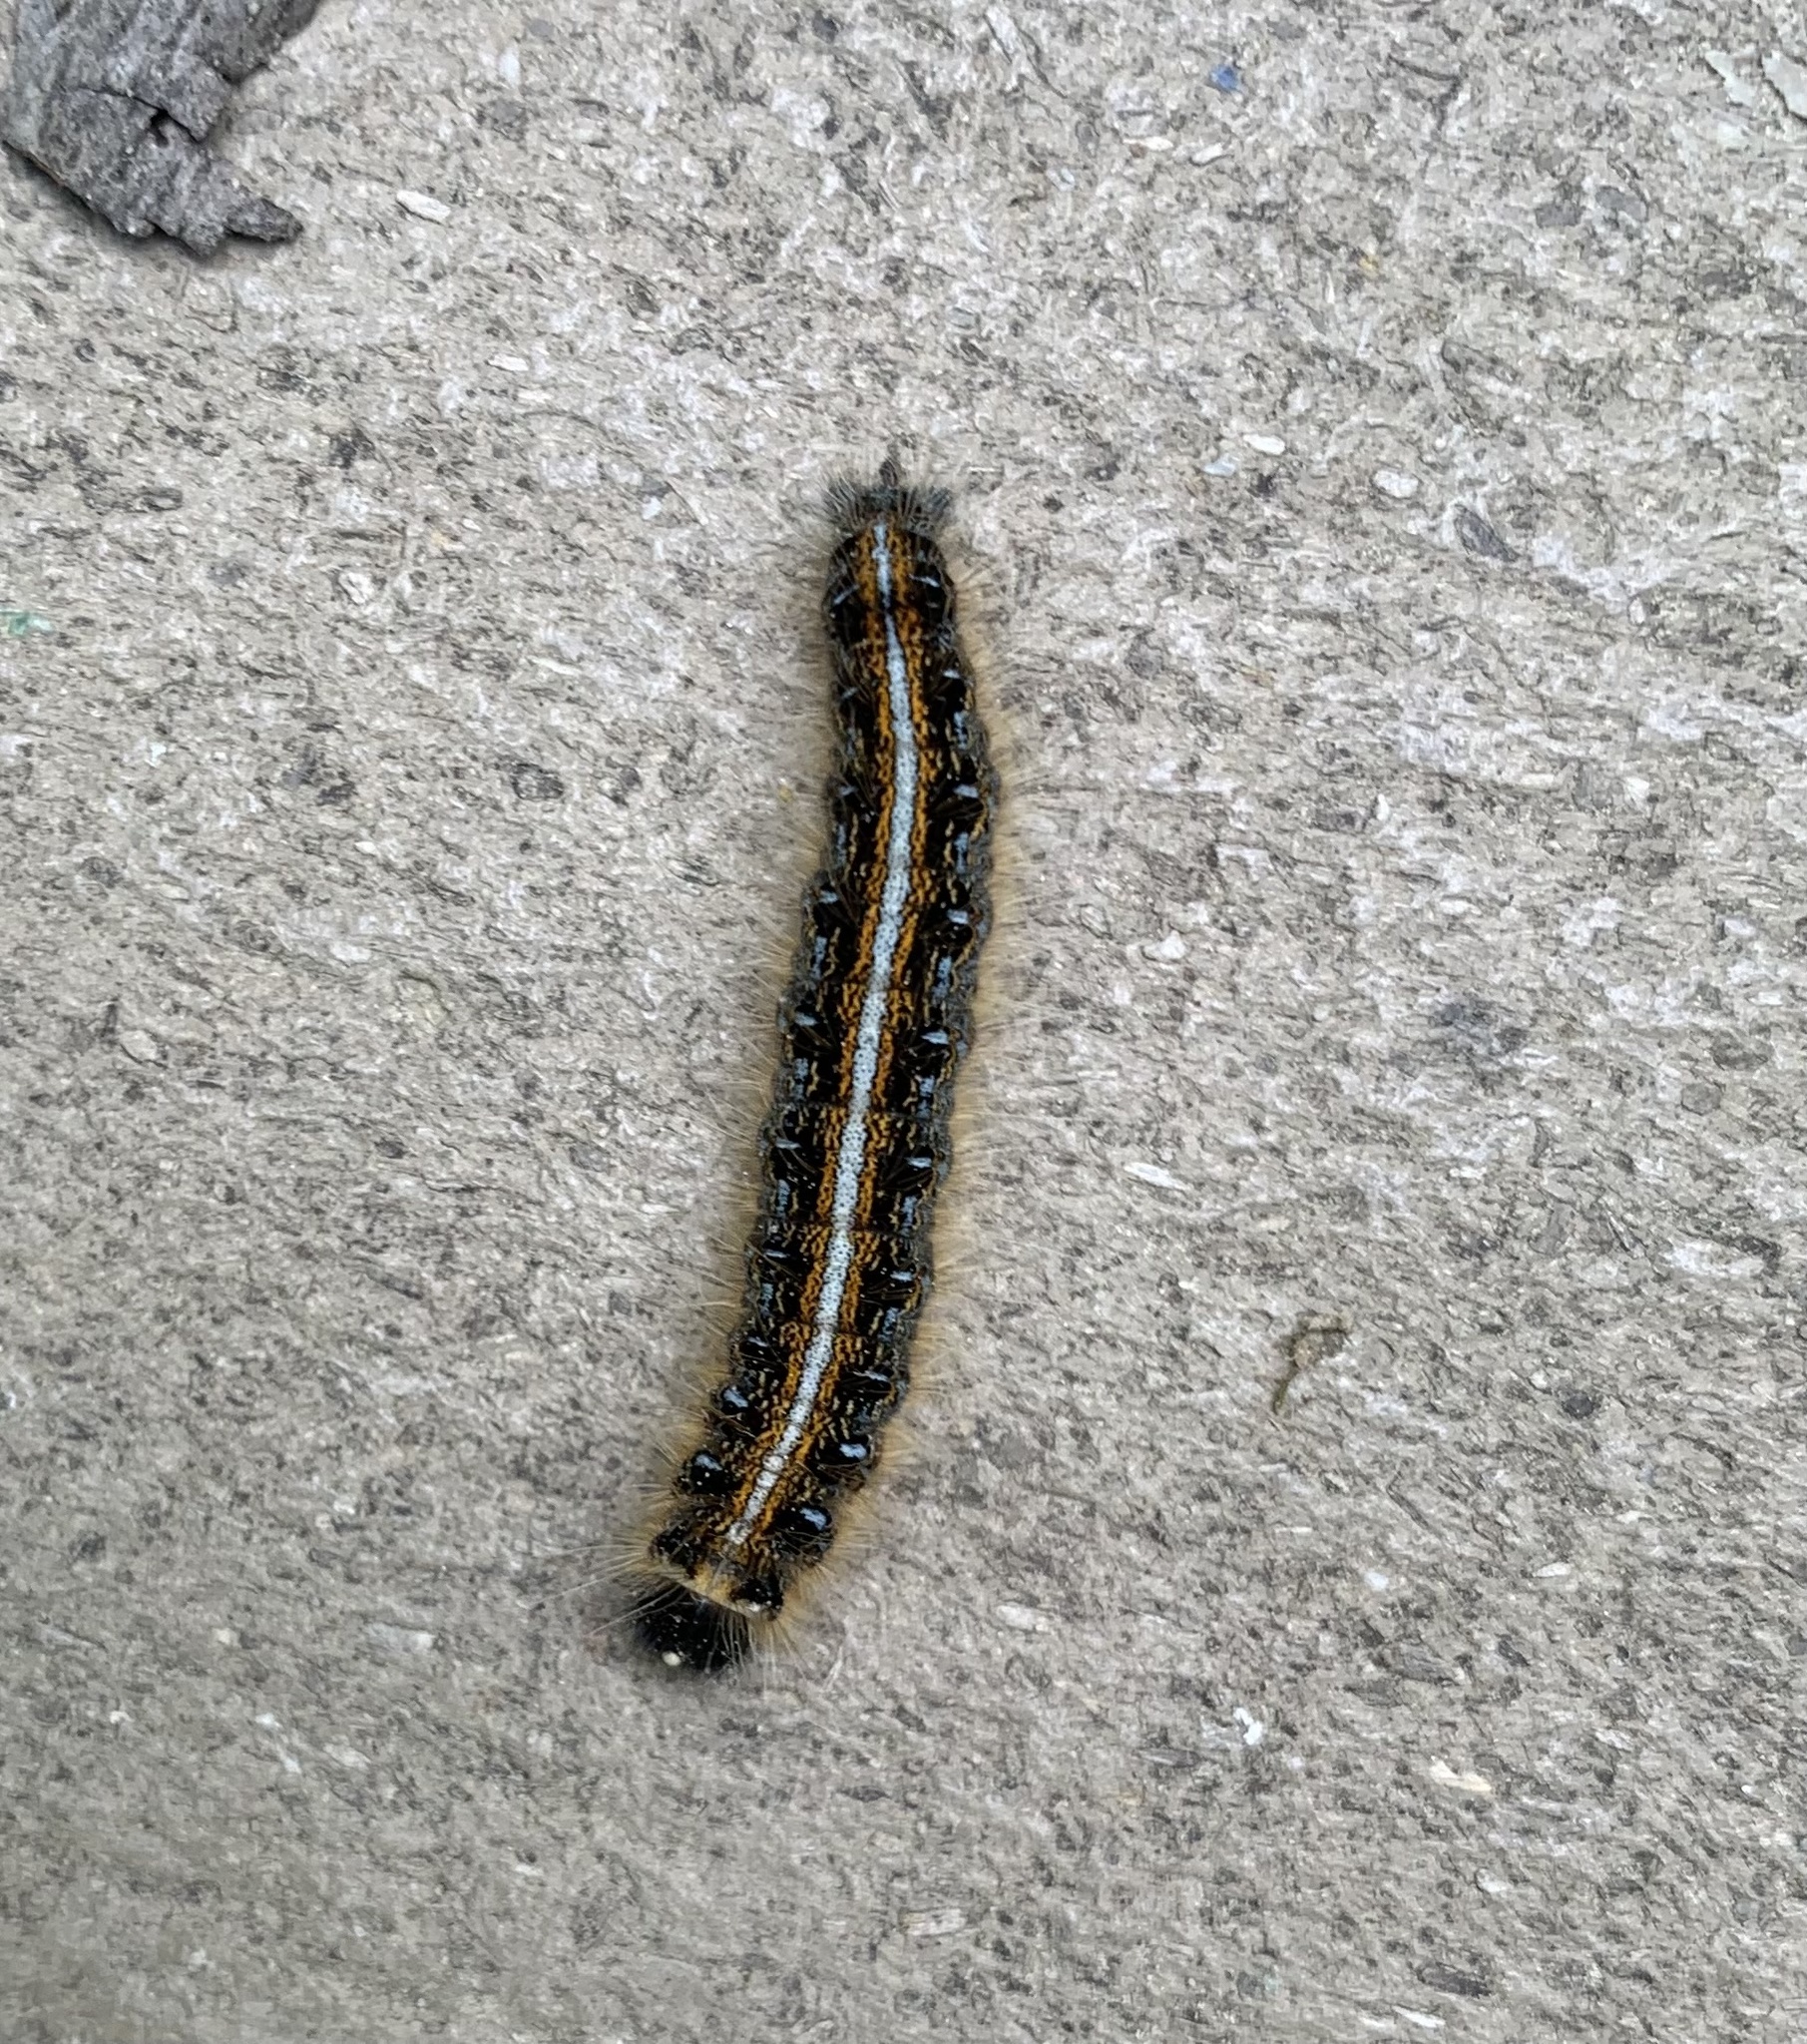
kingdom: Animalia
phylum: Arthropoda
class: Insecta
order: Lepidoptera
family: Lasiocampidae
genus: Malacosoma
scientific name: Malacosoma americana
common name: Eastern tent caterpillar moth
